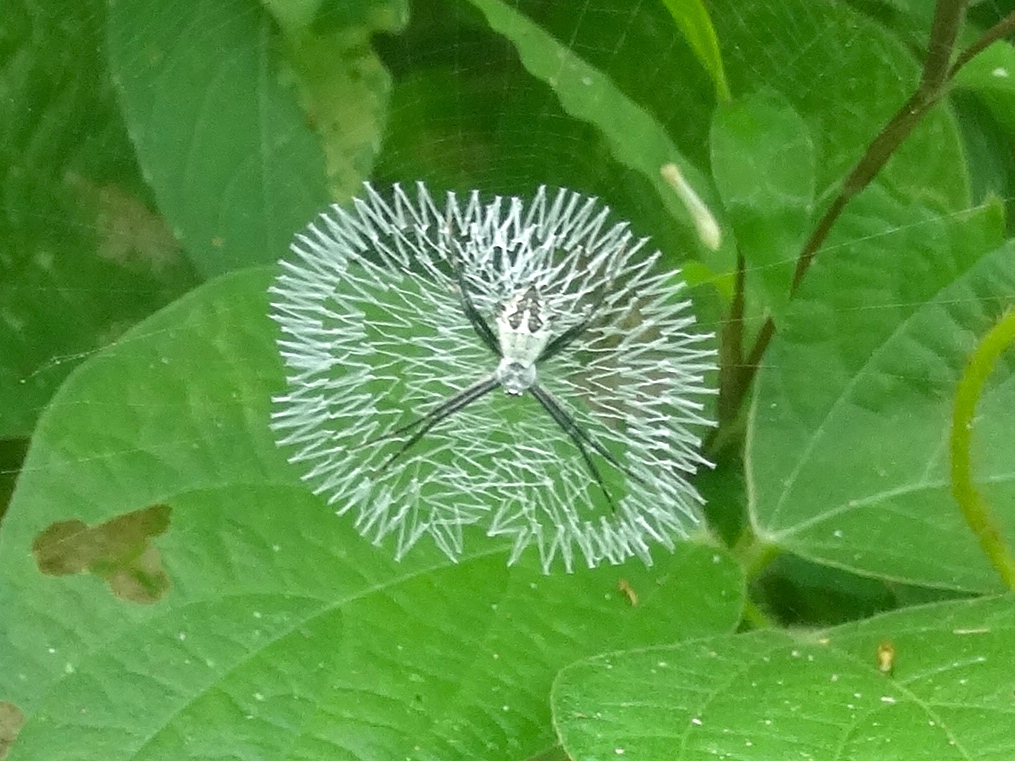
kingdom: Animalia
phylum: Arthropoda
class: Arachnida
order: Araneae
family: Araneidae
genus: Argiope
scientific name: Argiope argentata
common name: Orb weavers
